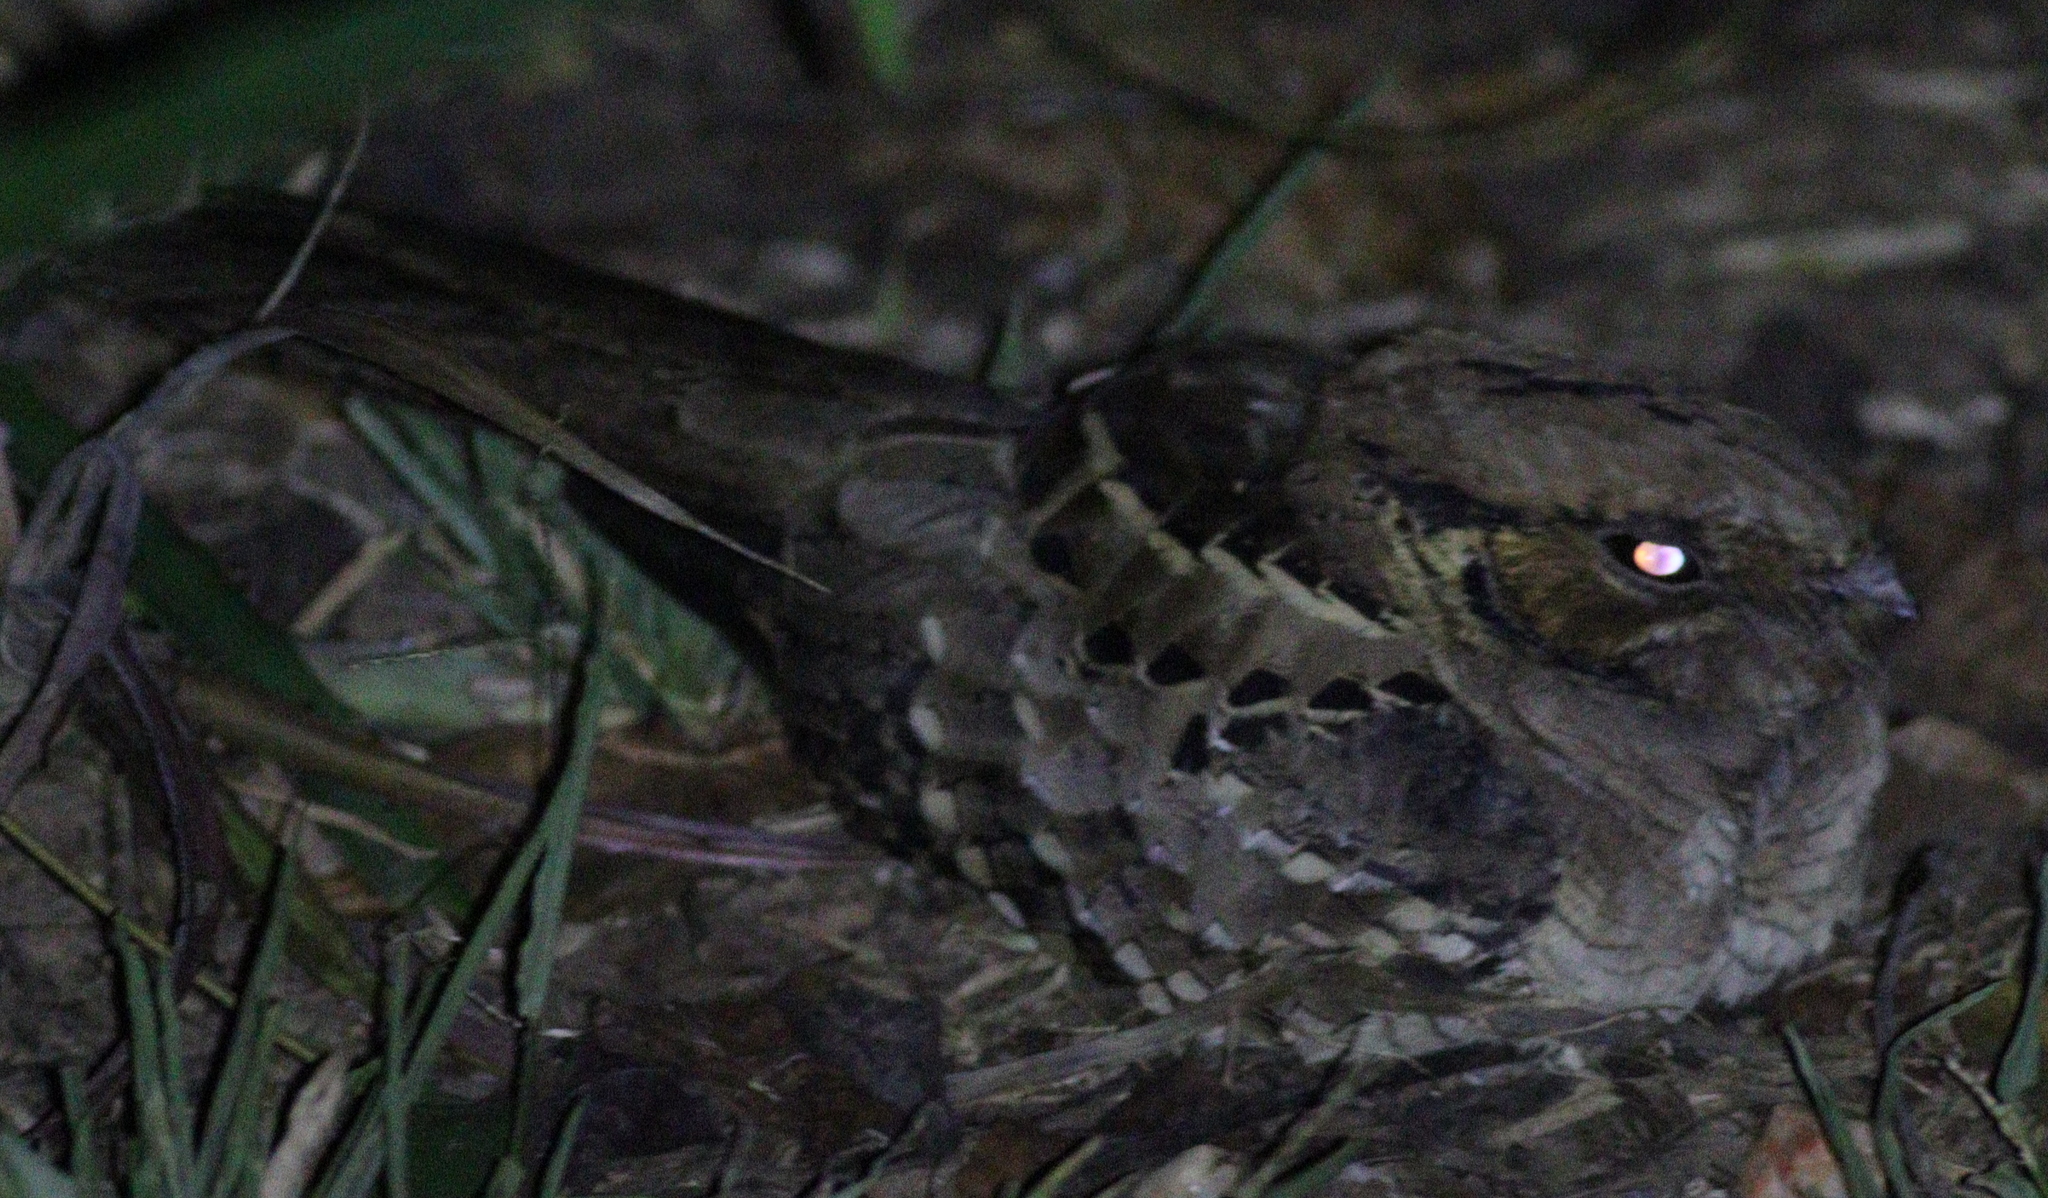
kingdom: Animalia
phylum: Chordata
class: Aves
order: Caprimulgiformes
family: Caprimulgidae
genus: Nyctidromus
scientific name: Nyctidromus albicollis
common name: Pauraque
